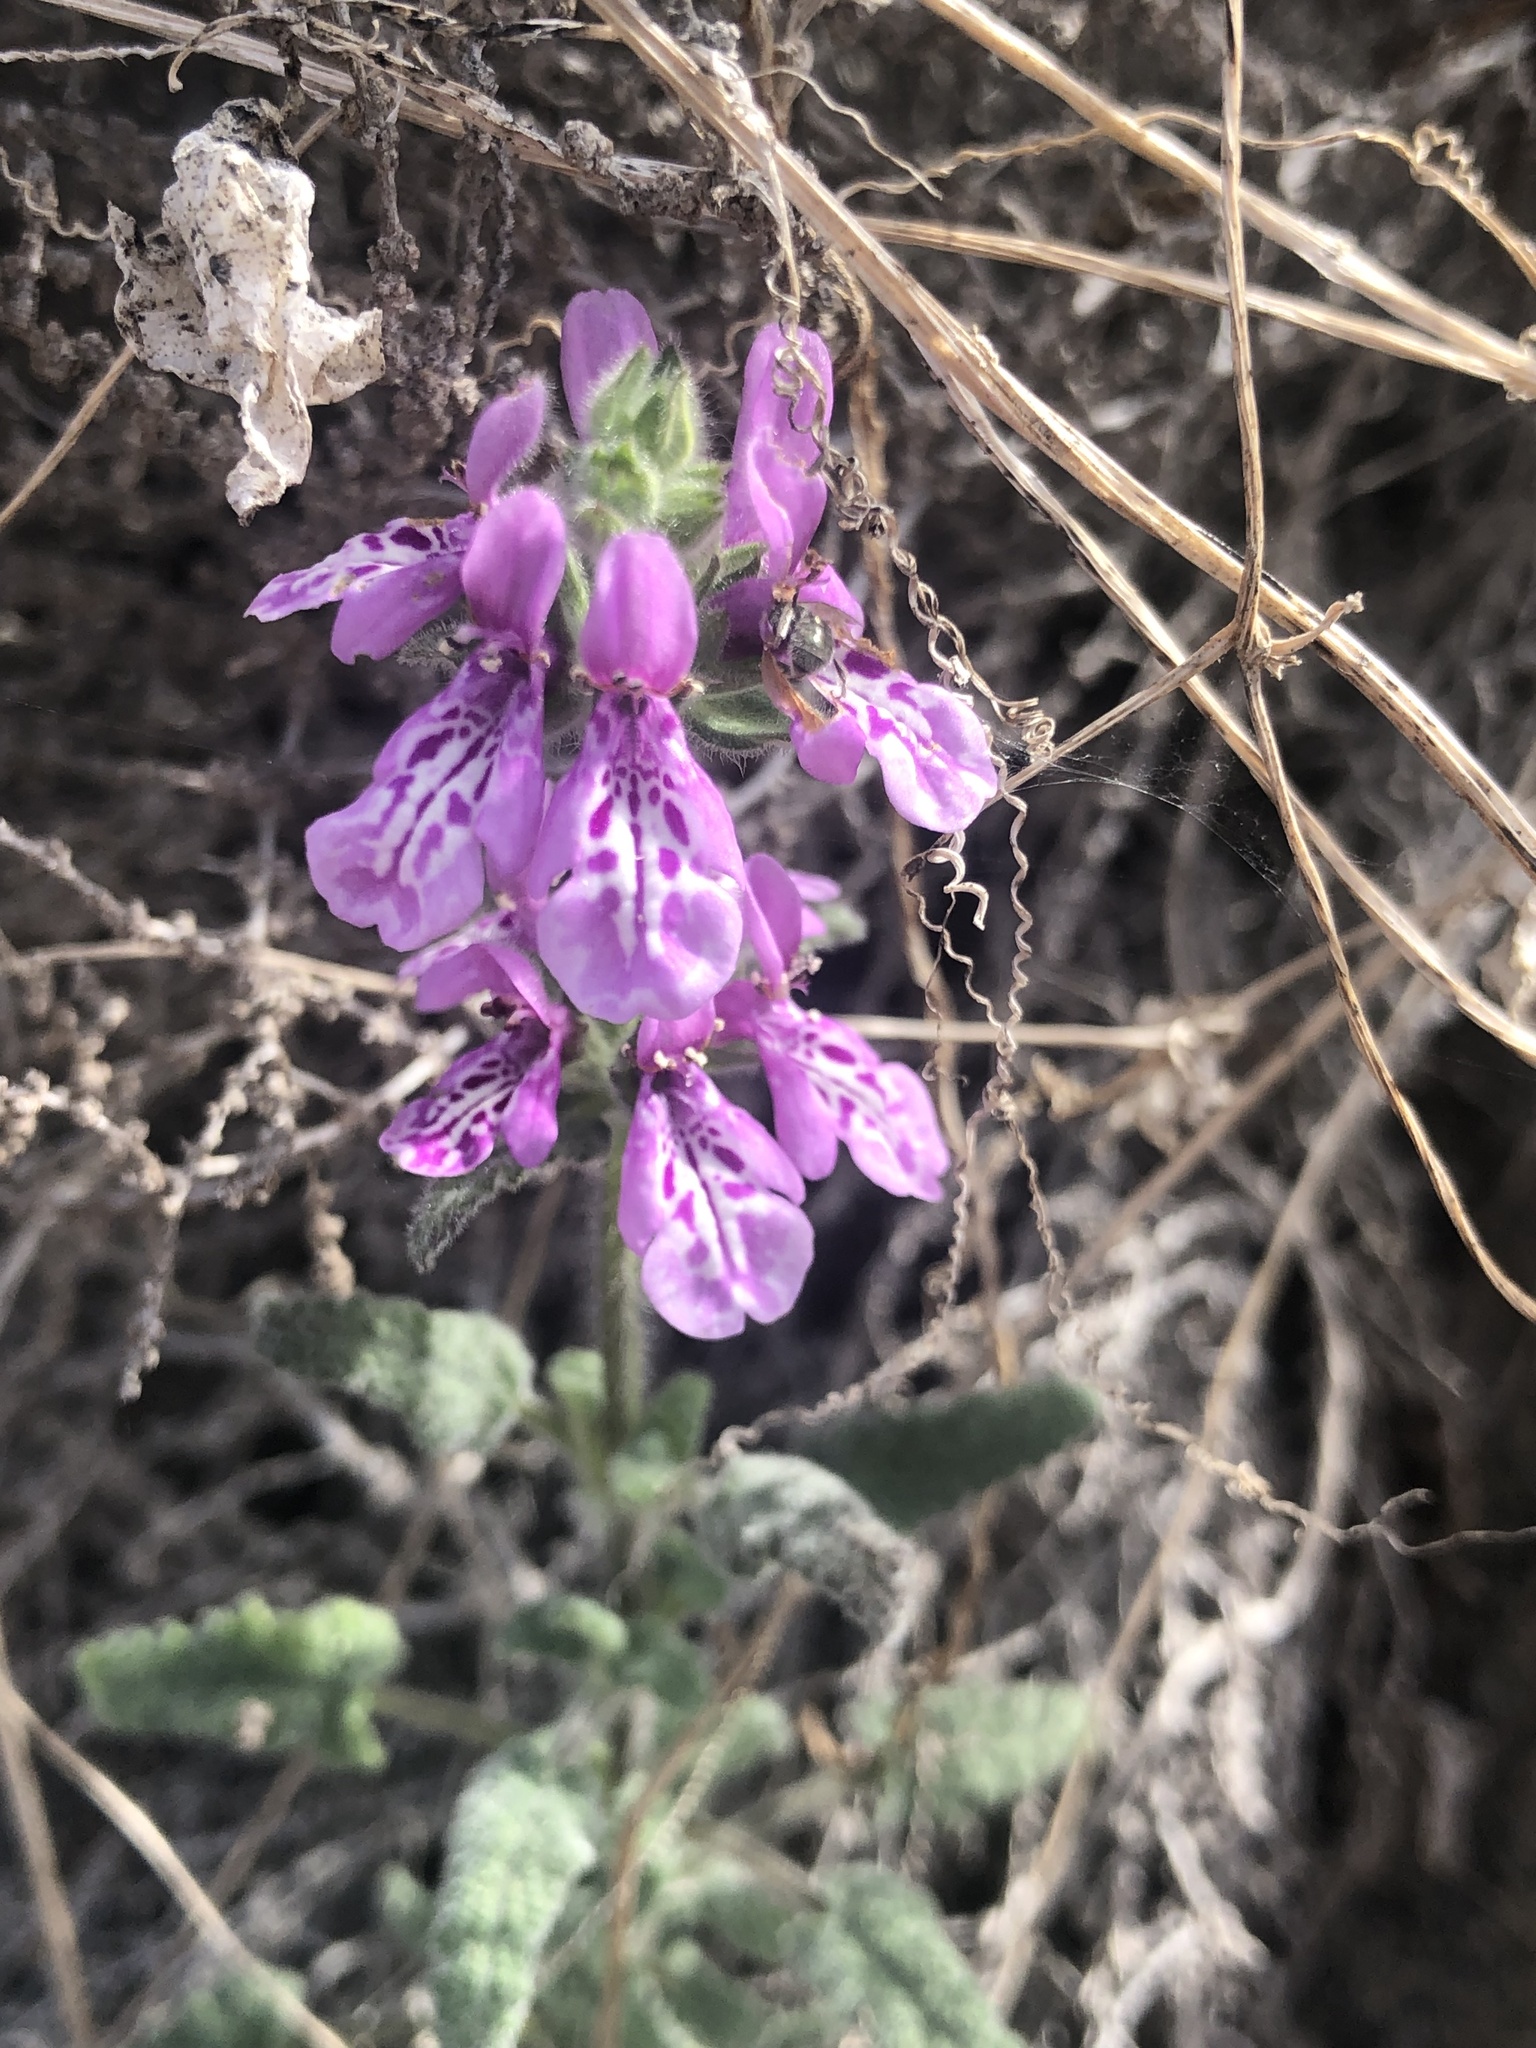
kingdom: Plantae
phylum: Tracheophyta
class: Magnoliopsida
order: Lamiales
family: Lamiaceae
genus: Stachys
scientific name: Stachys grandidentata
